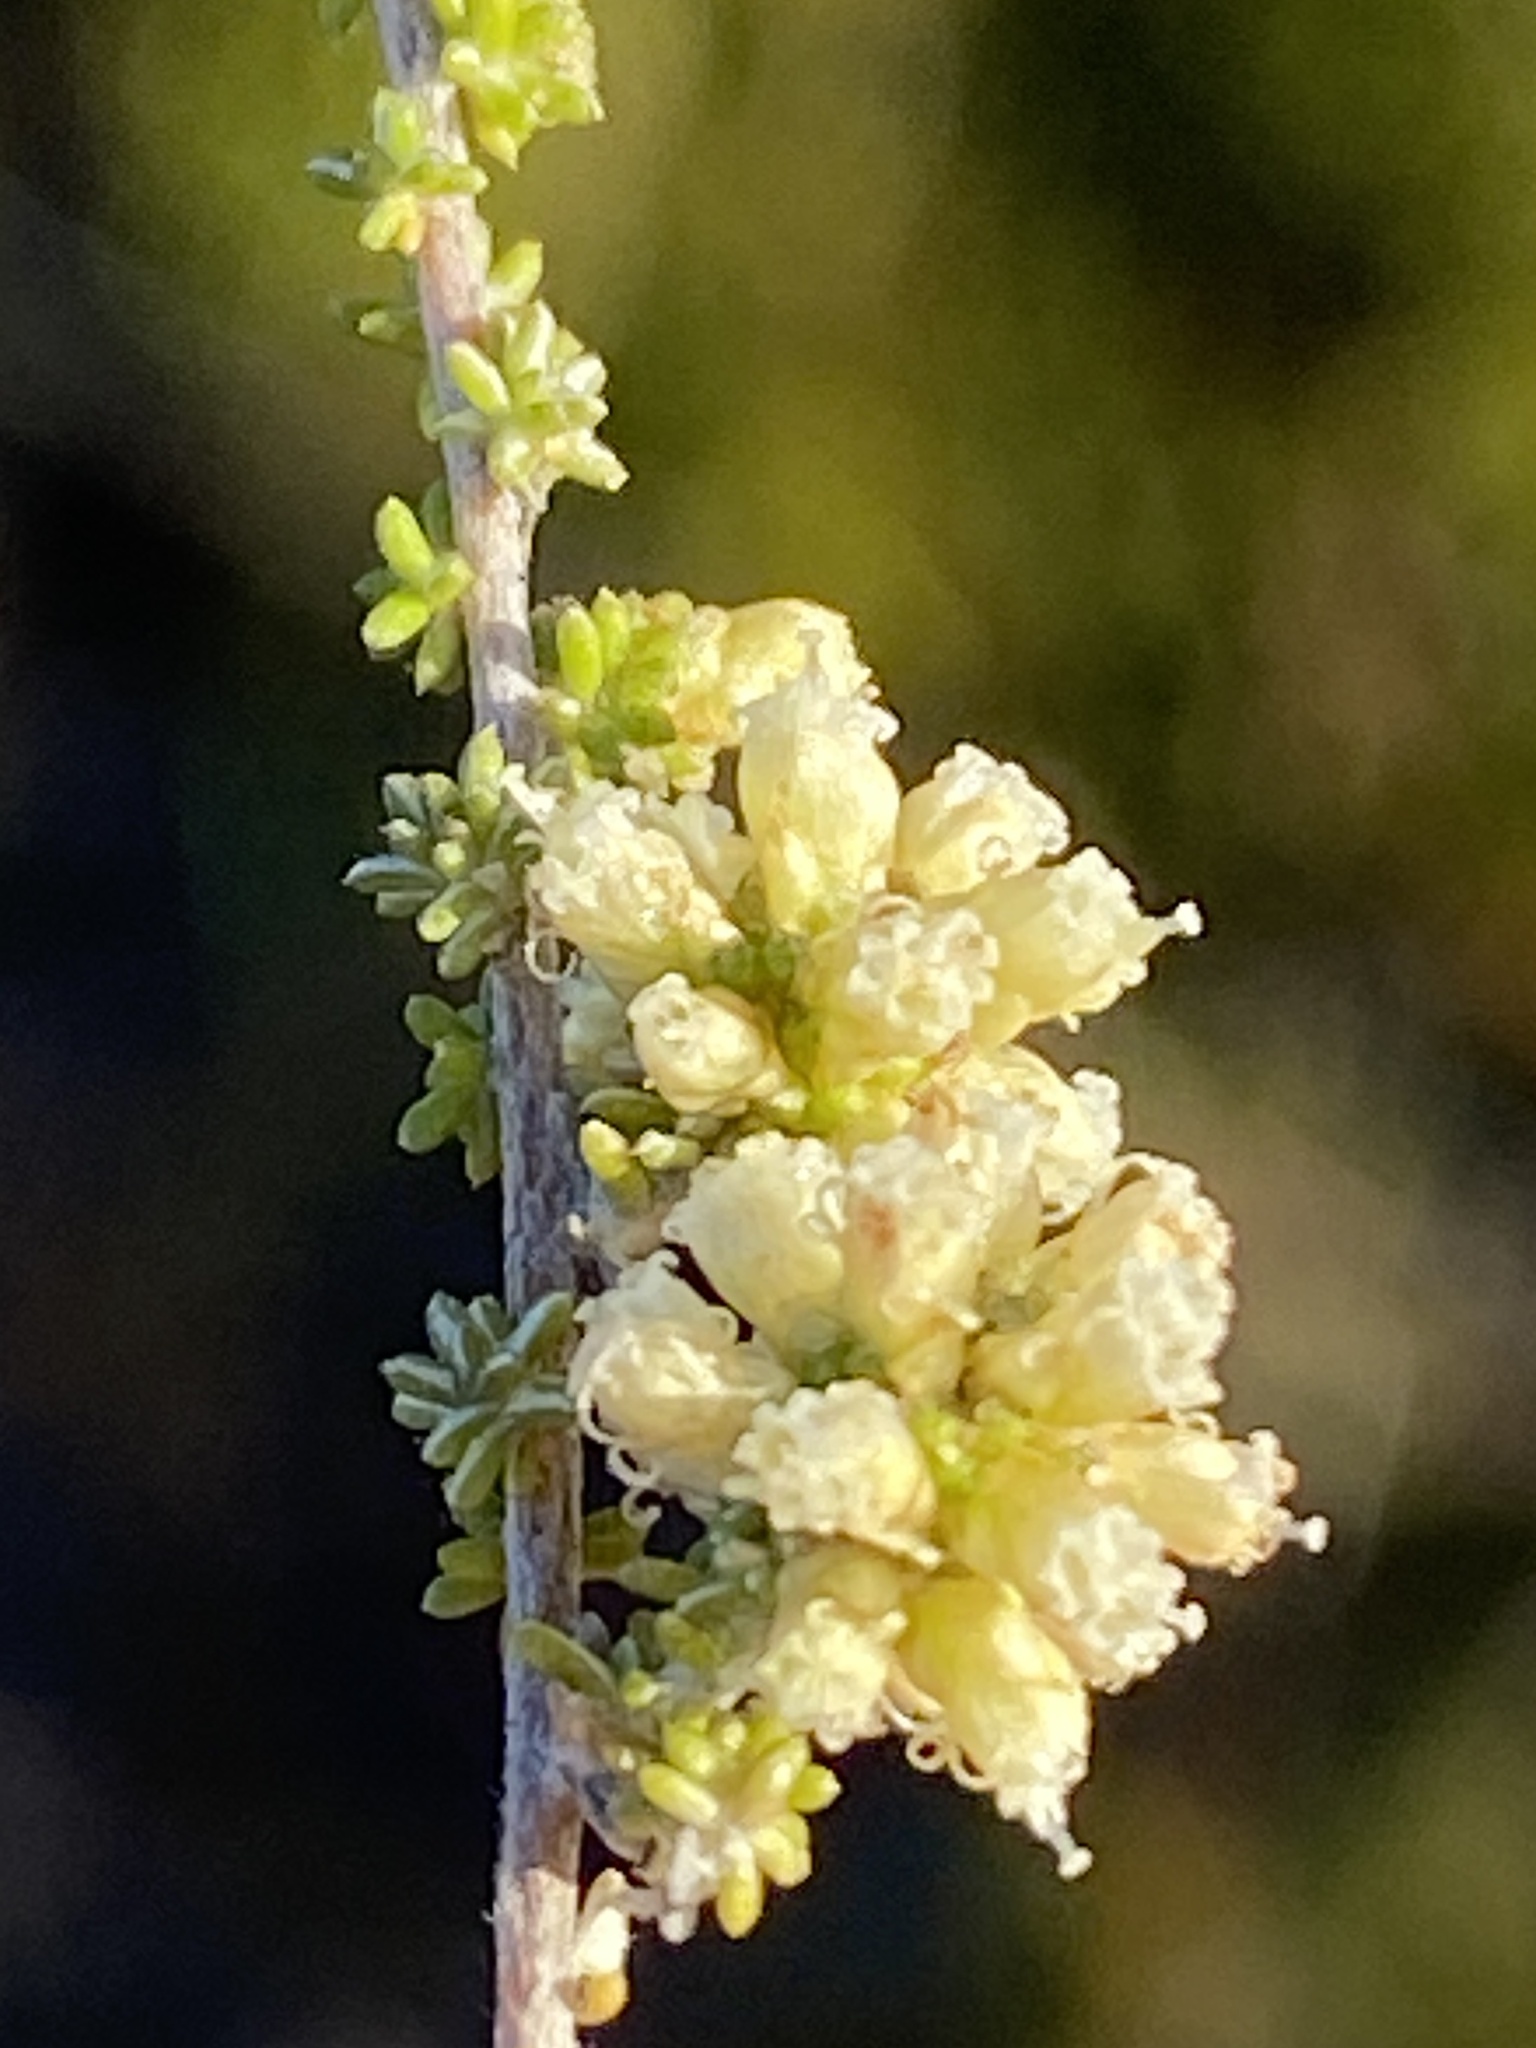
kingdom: Plantae
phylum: Tracheophyta
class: Magnoliopsida
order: Asterales
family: Asteraceae
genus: Ifloga
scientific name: Ifloga repens
